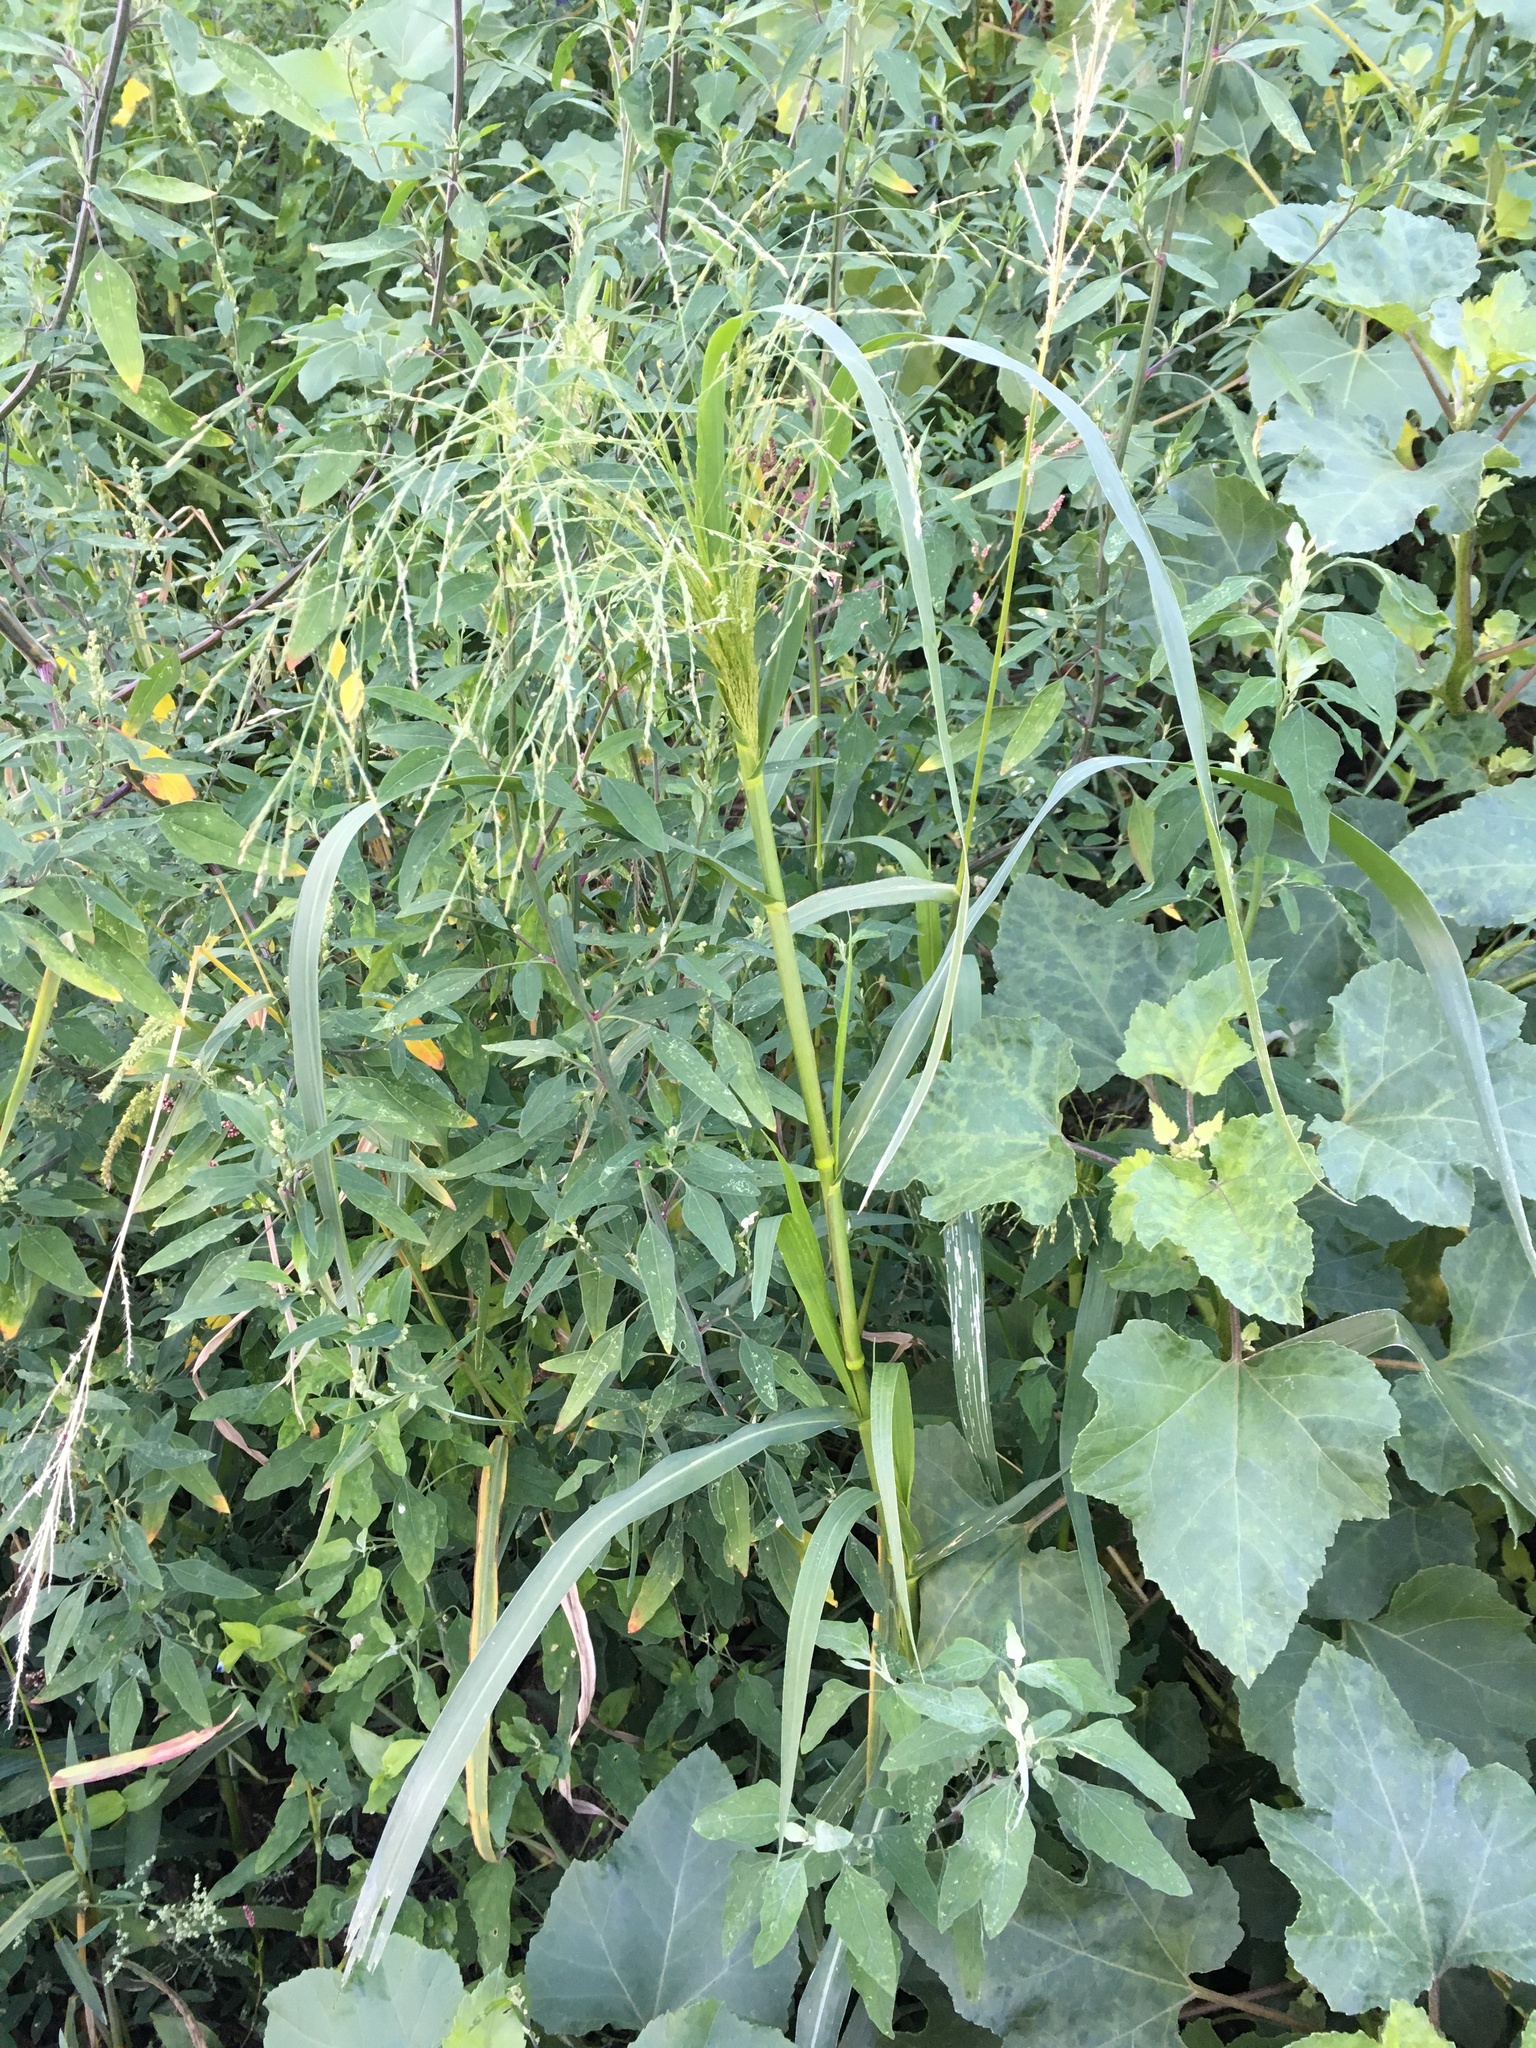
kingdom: Plantae
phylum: Tracheophyta
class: Liliopsida
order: Poales
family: Poaceae
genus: Panicum
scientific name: Panicum dichotomiflorum
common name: Autumn millet
